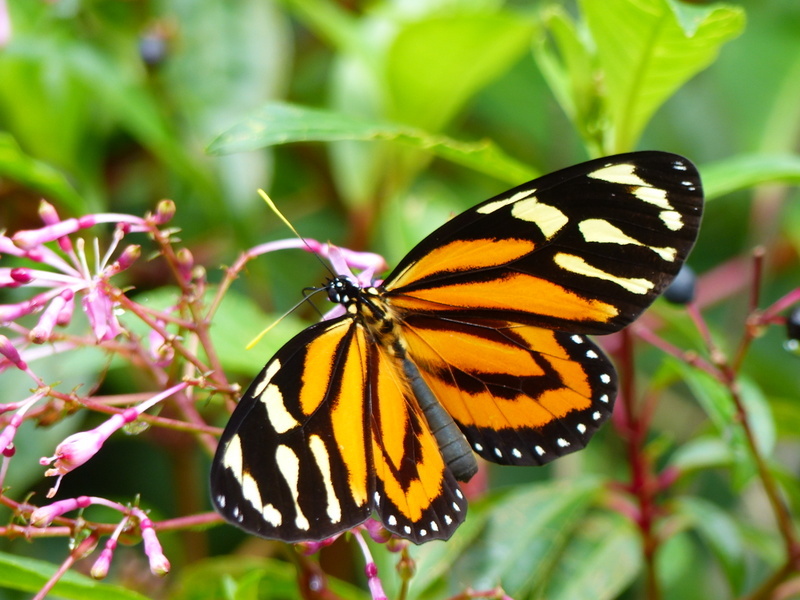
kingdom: Animalia
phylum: Arthropoda
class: Insecta
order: Lepidoptera
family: Nymphalidae
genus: Lycorea
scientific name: Lycorea cleobaea
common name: Tiger mimic-queen
